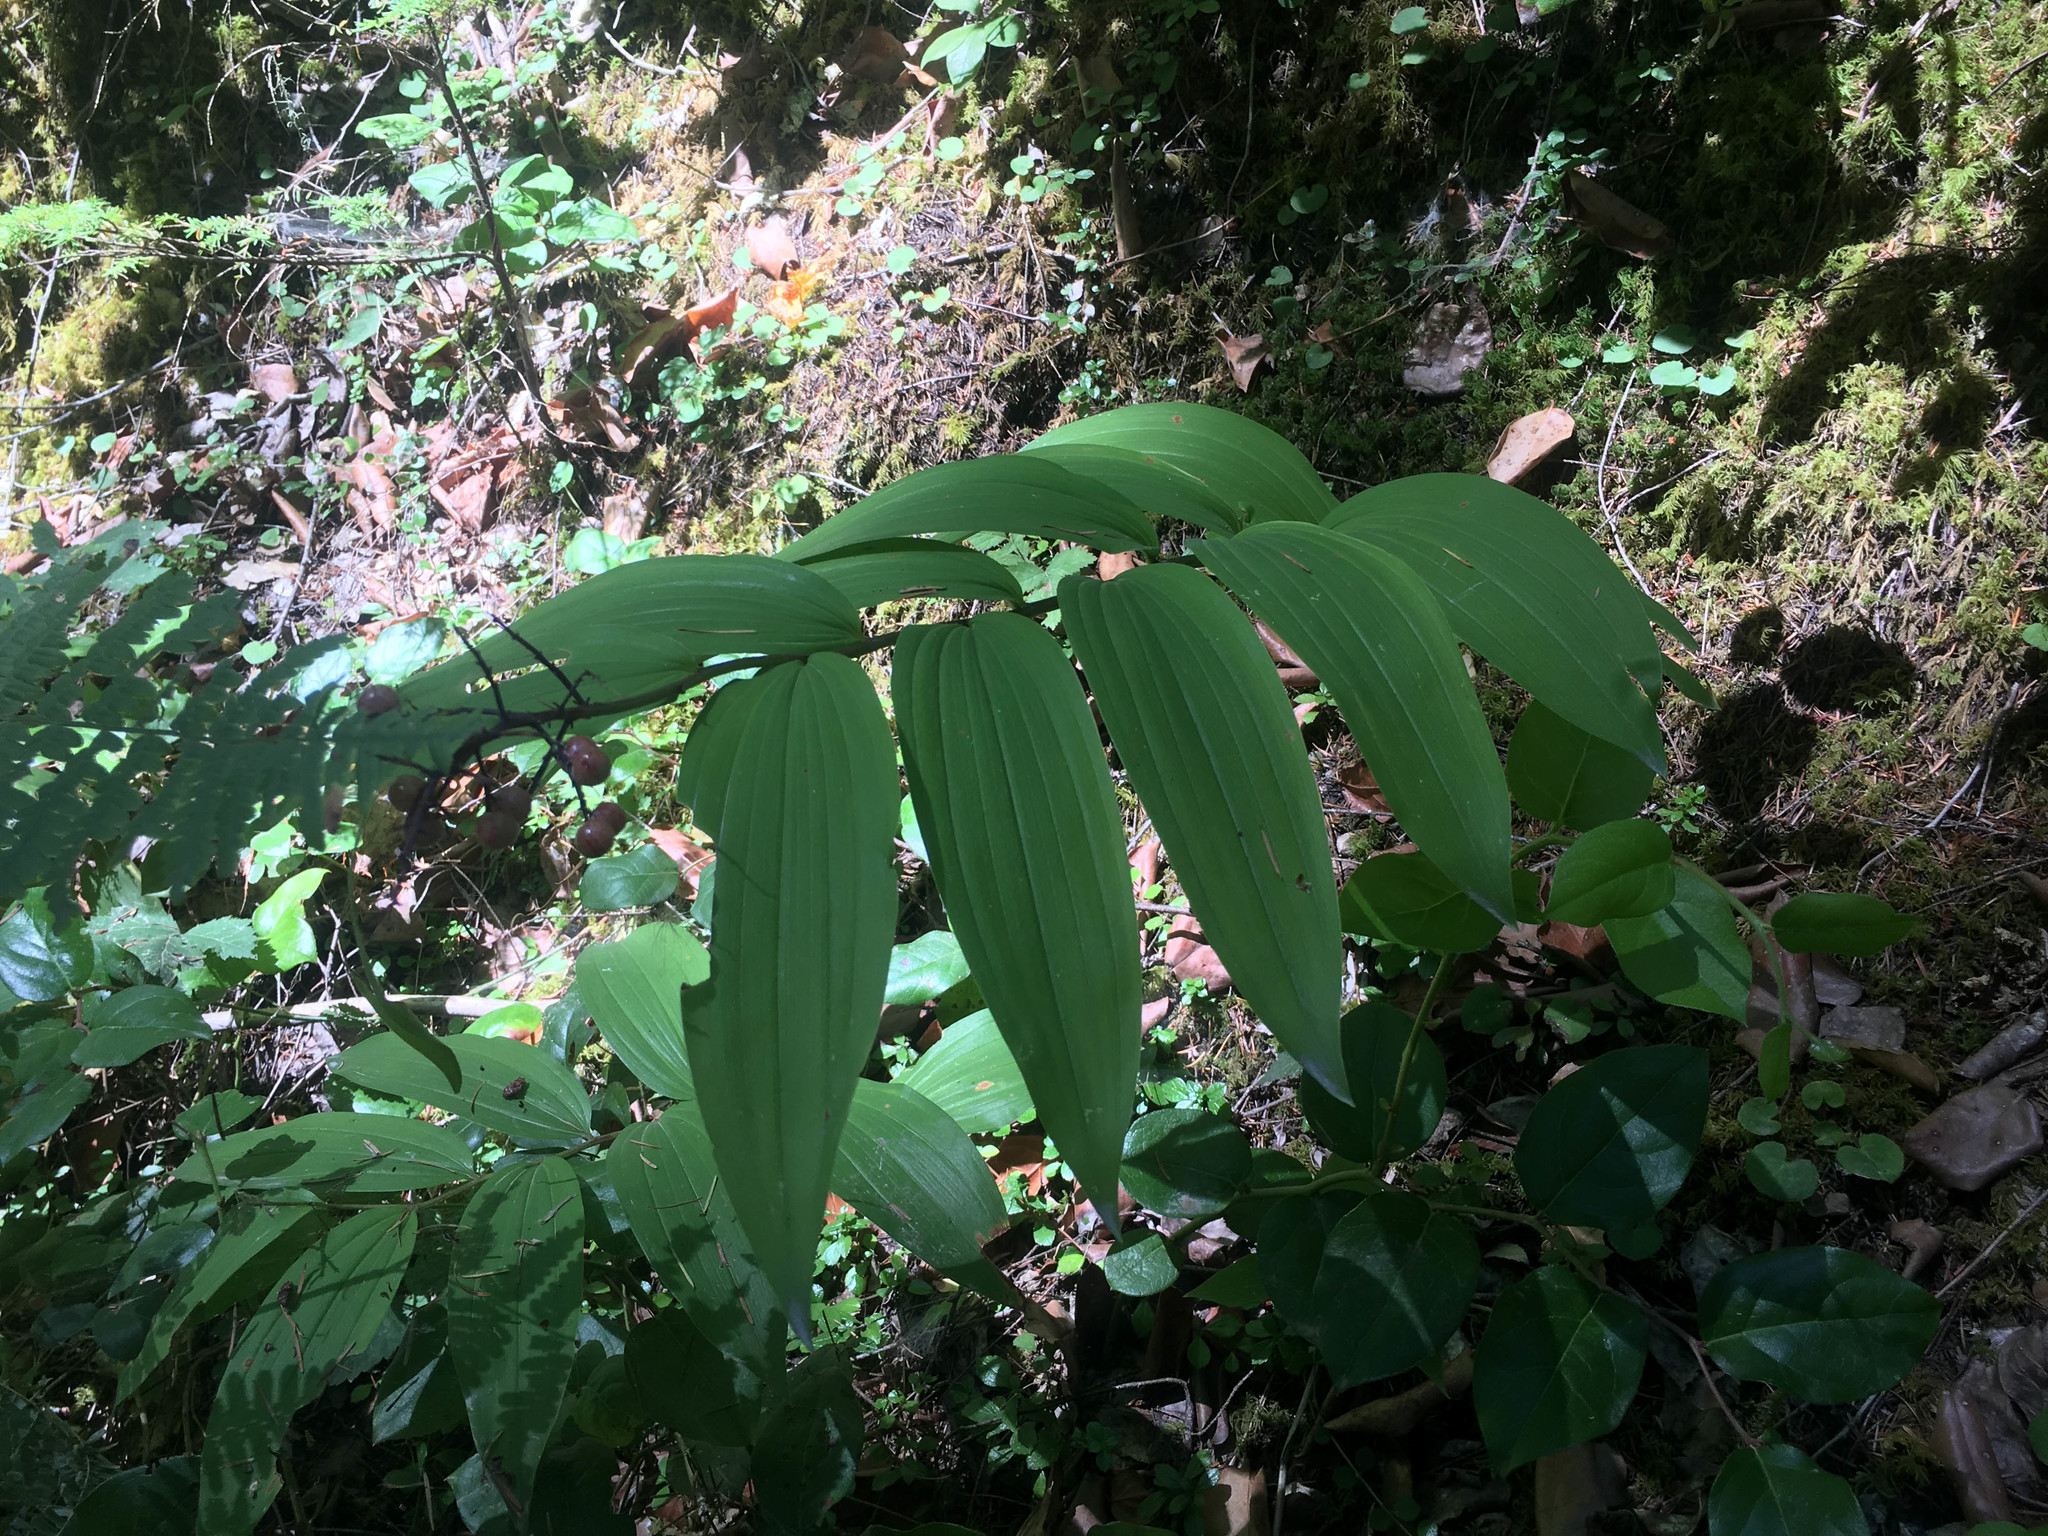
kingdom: Plantae
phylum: Tracheophyta
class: Liliopsida
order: Asparagales
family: Asparagaceae
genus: Maianthemum
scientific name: Maianthemum racemosum
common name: False spikenard
